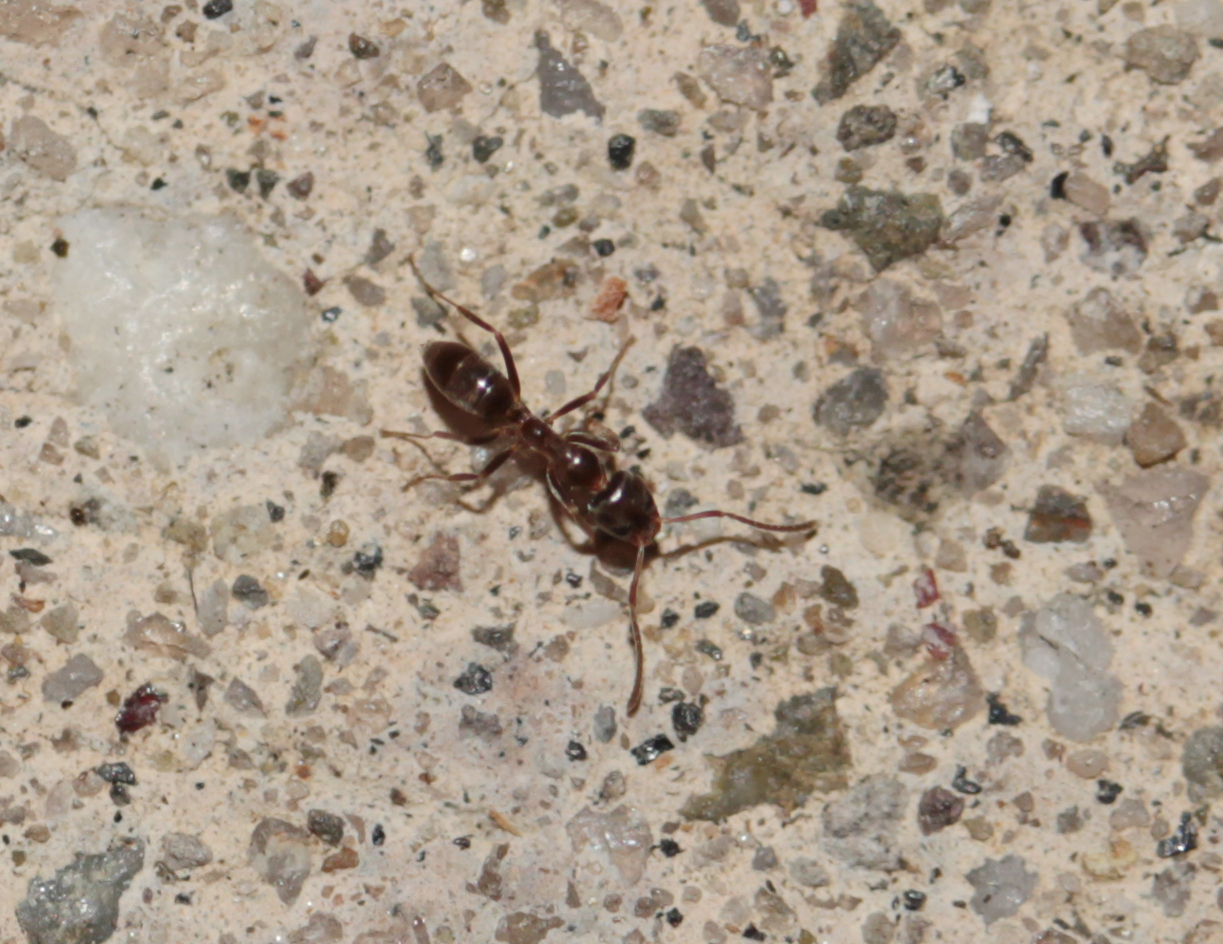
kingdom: Animalia
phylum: Arthropoda
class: Insecta
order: Hymenoptera
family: Formicidae
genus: Linepithema
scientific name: Linepithema humile
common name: Argentine ant
